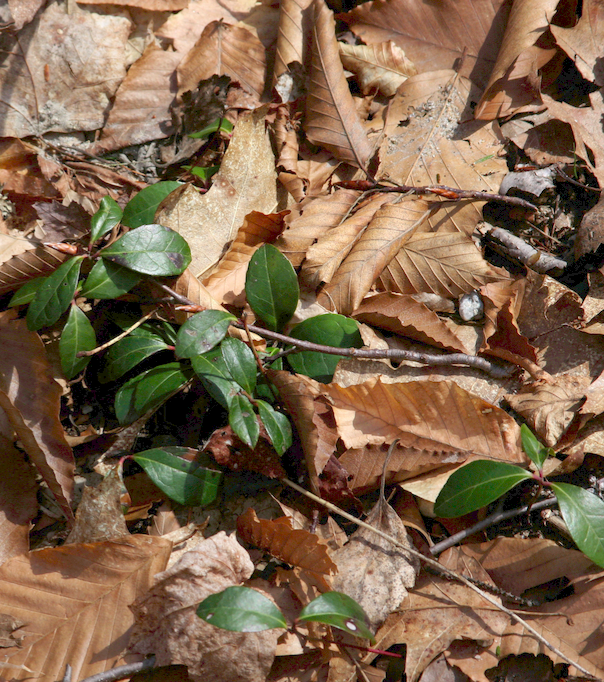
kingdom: Plantae
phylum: Tracheophyta
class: Magnoliopsida
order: Ericales
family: Ericaceae
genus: Gaultheria
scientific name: Gaultheria procumbens
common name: Checkerberry
